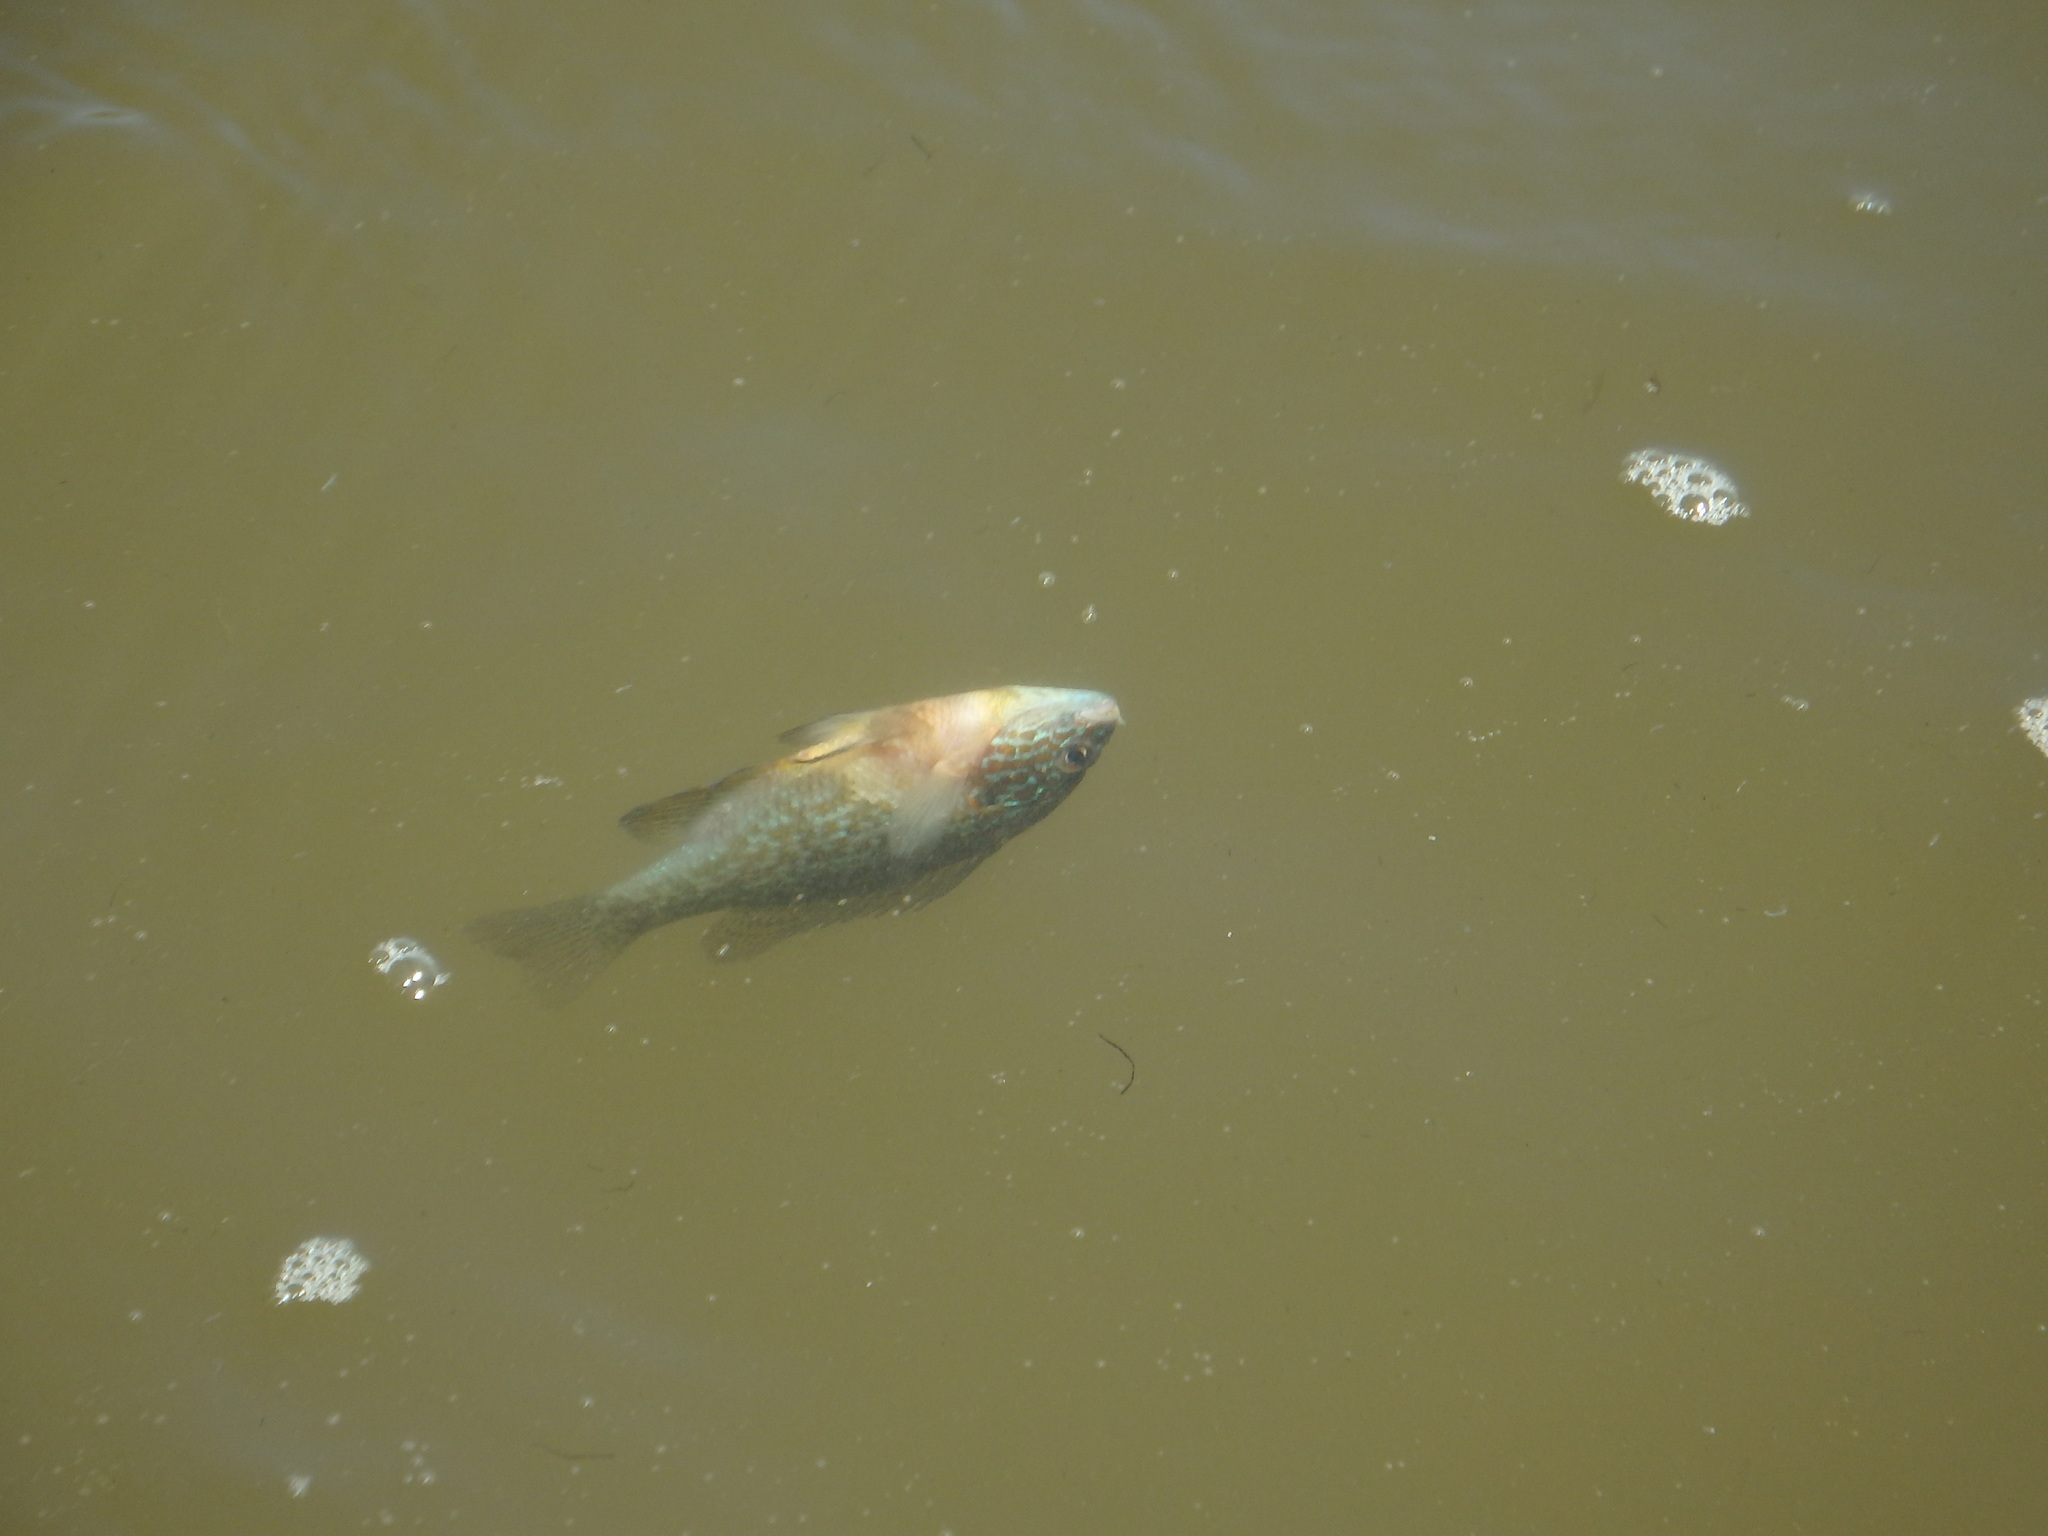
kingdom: Animalia
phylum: Chordata
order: Perciformes
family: Centrarchidae
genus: Lepomis
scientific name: Lepomis gibbosus
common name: Pumpkinseed
